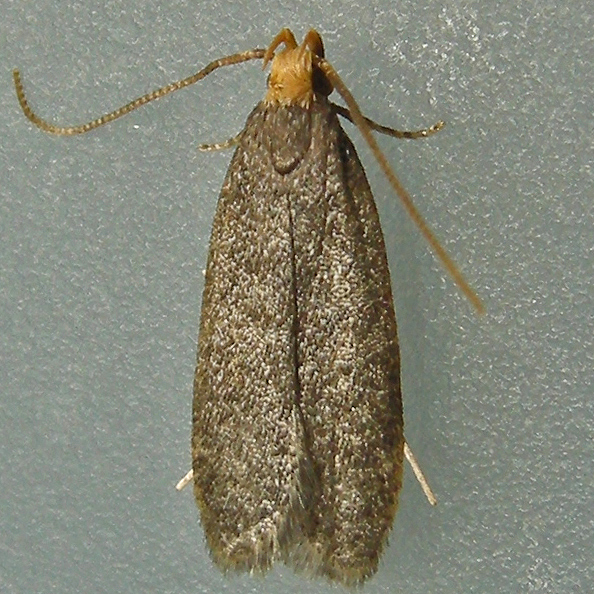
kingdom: Animalia
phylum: Arthropoda
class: Insecta
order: Lepidoptera
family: Autostichidae
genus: Glyphidocera
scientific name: Glyphidocera lithodoxa
